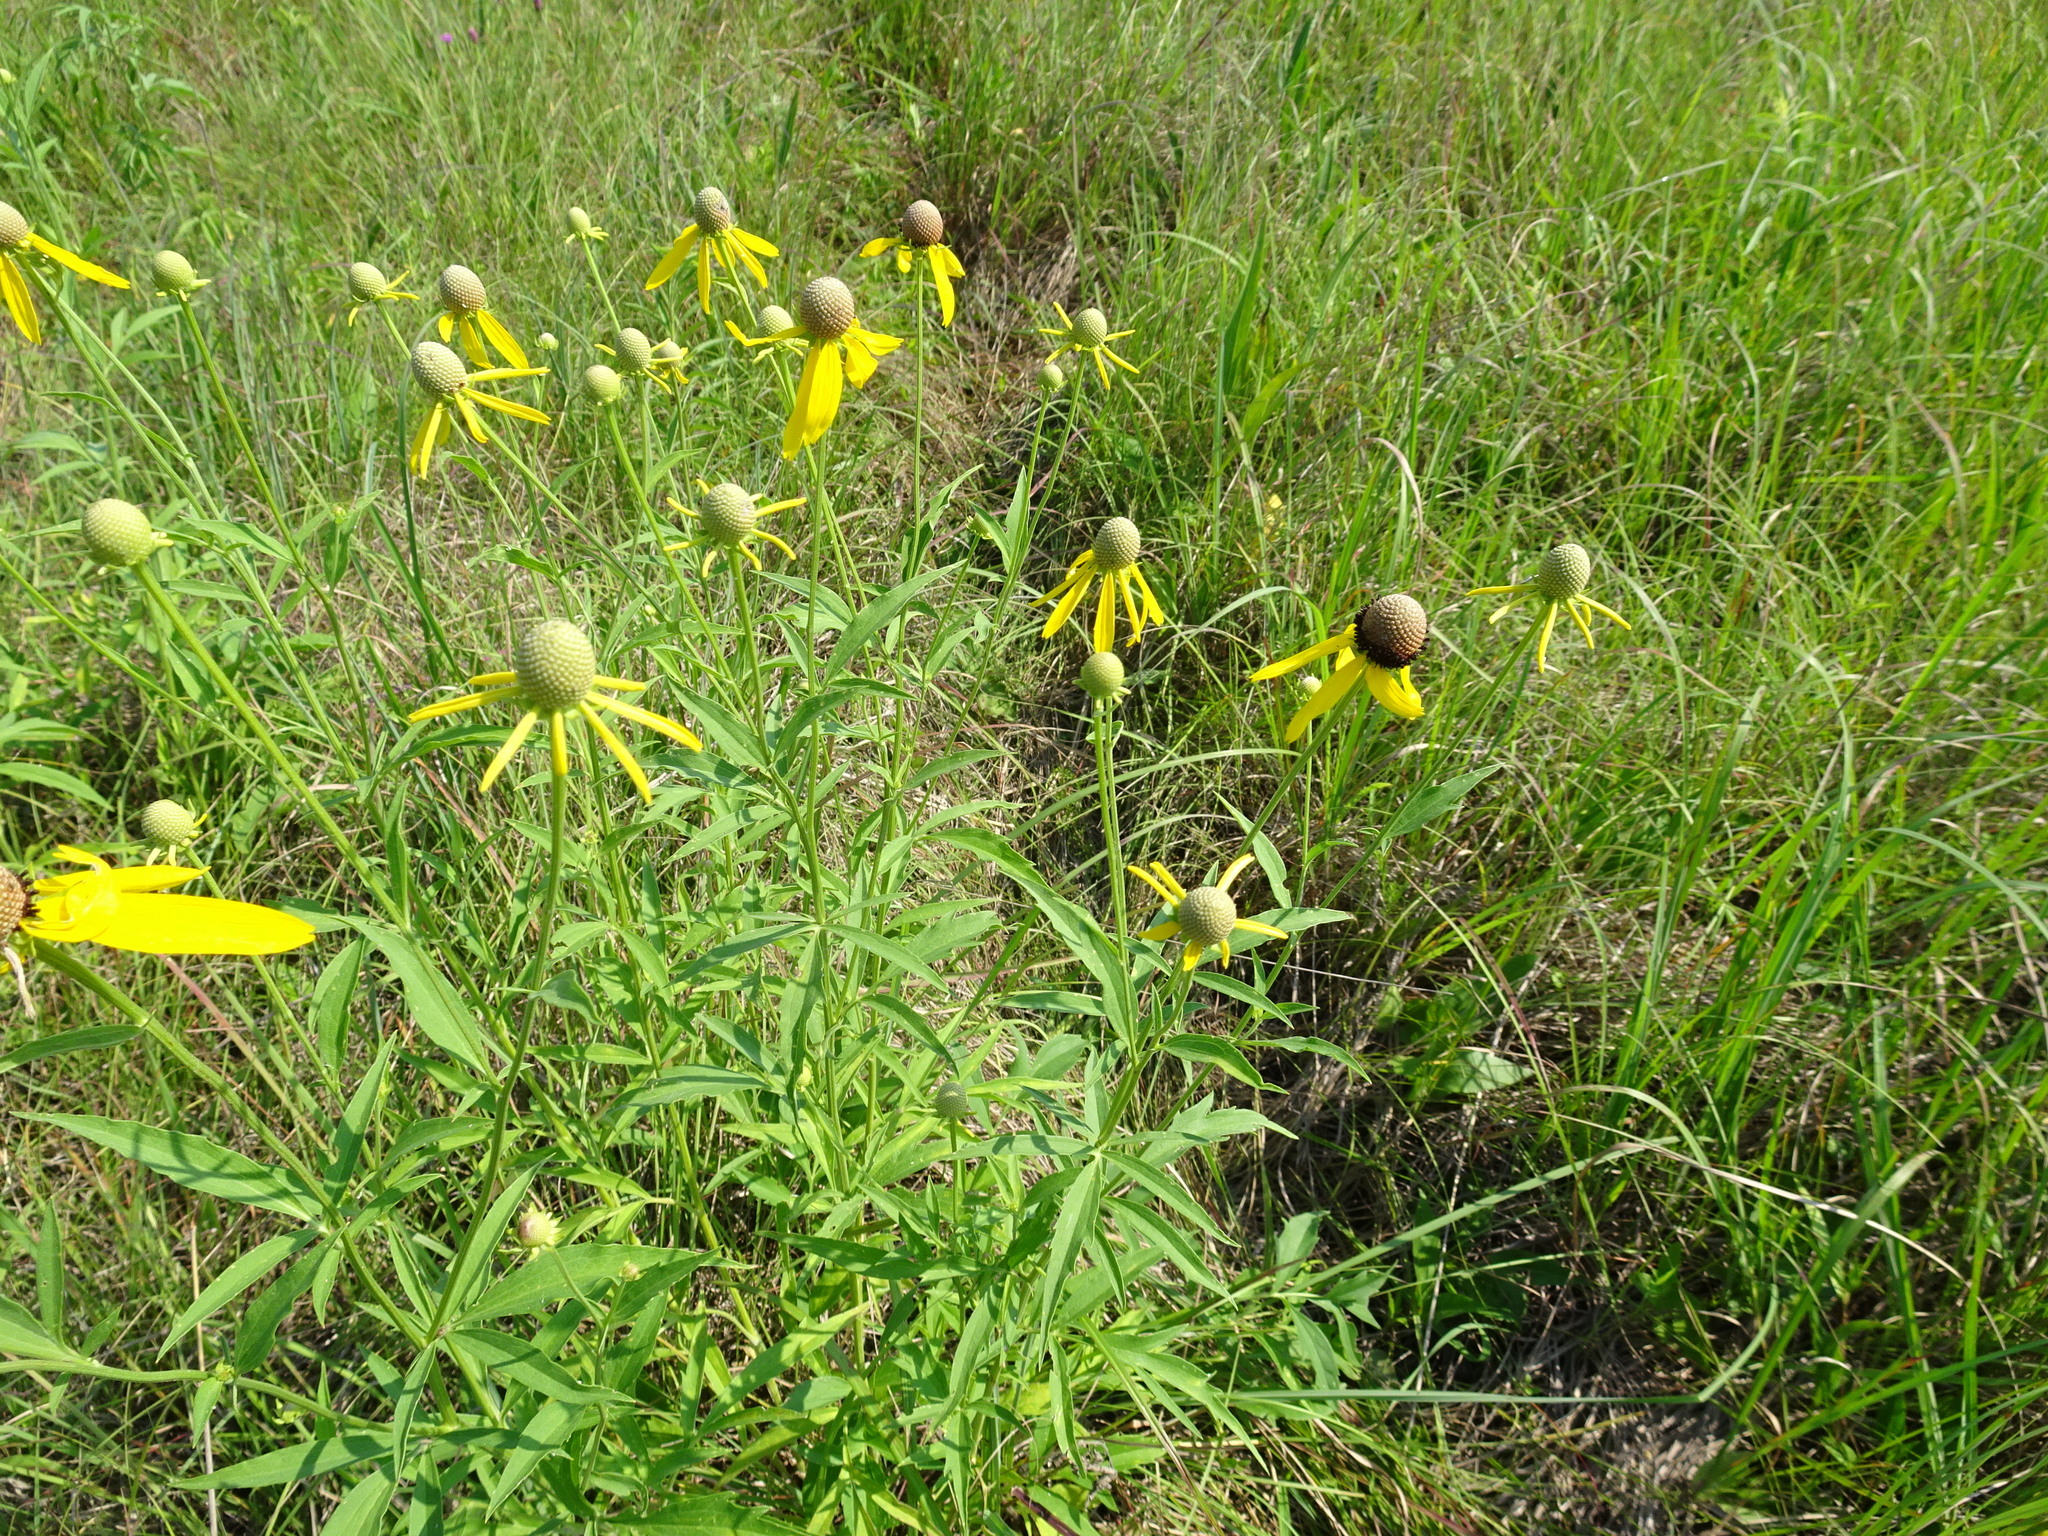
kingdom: Plantae
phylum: Tracheophyta
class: Magnoliopsida
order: Asterales
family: Asteraceae
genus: Ratibida
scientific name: Ratibida pinnata
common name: Drooping prairie-coneflower
